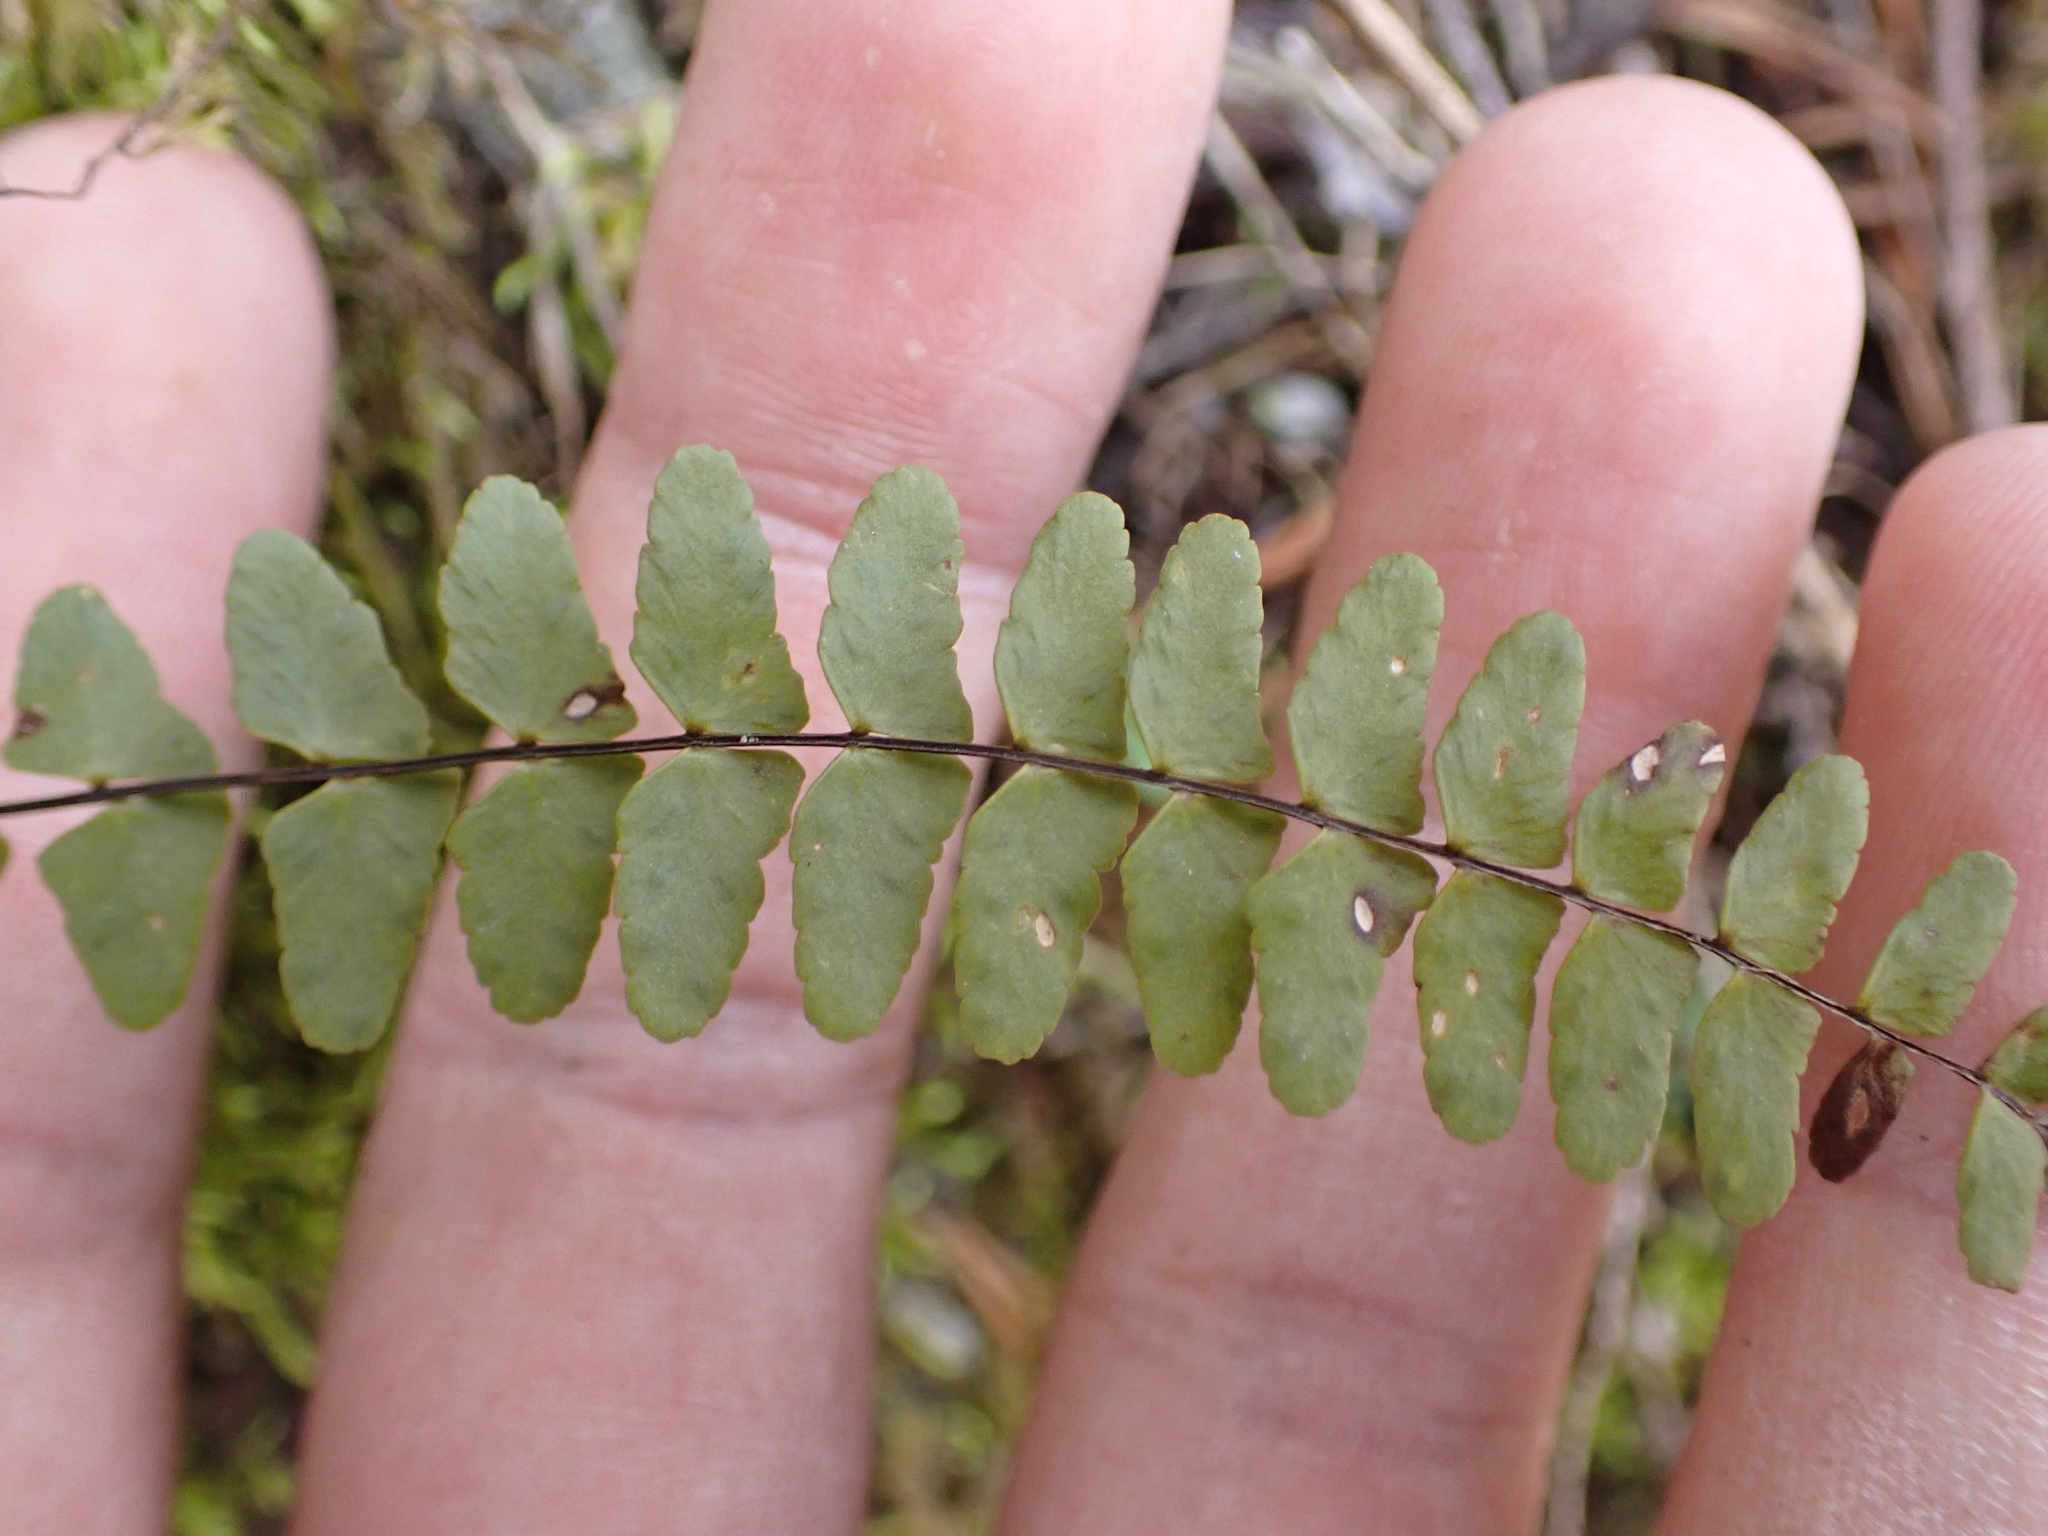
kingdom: Plantae
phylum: Tracheophyta
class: Polypodiopsida
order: Polypodiales
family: Aspleniaceae
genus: Asplenium
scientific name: Asplenium resiliens
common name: Blackstem spleenwort
